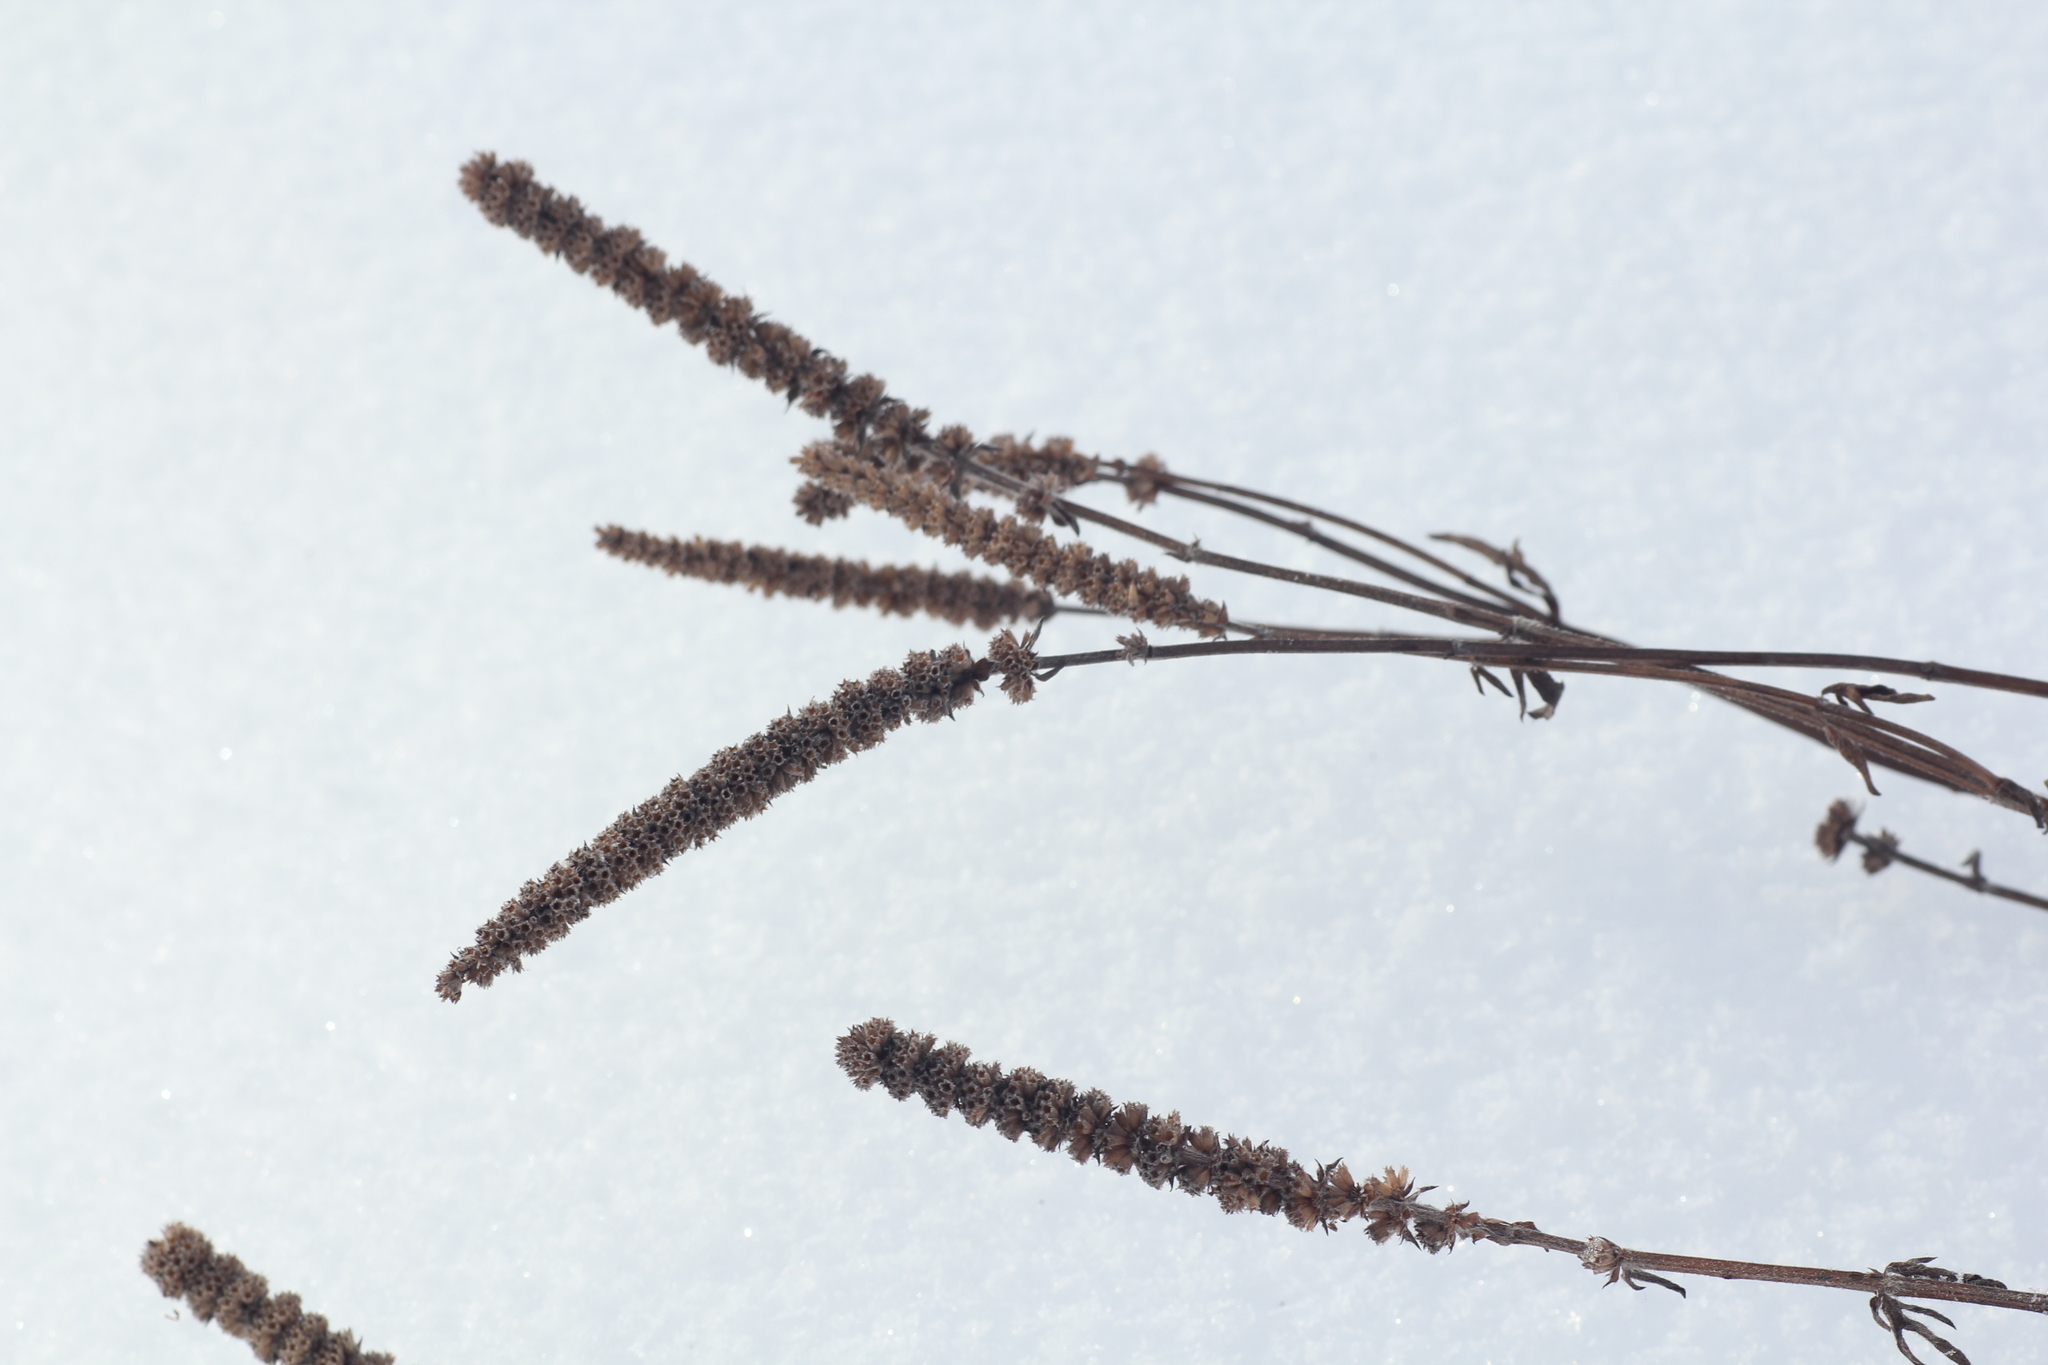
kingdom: Plantae
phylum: Tracheophyta
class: Magnoliopsida
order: Lamiales
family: Lamiaceae
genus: Nepeta
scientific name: Nepeta multifida
